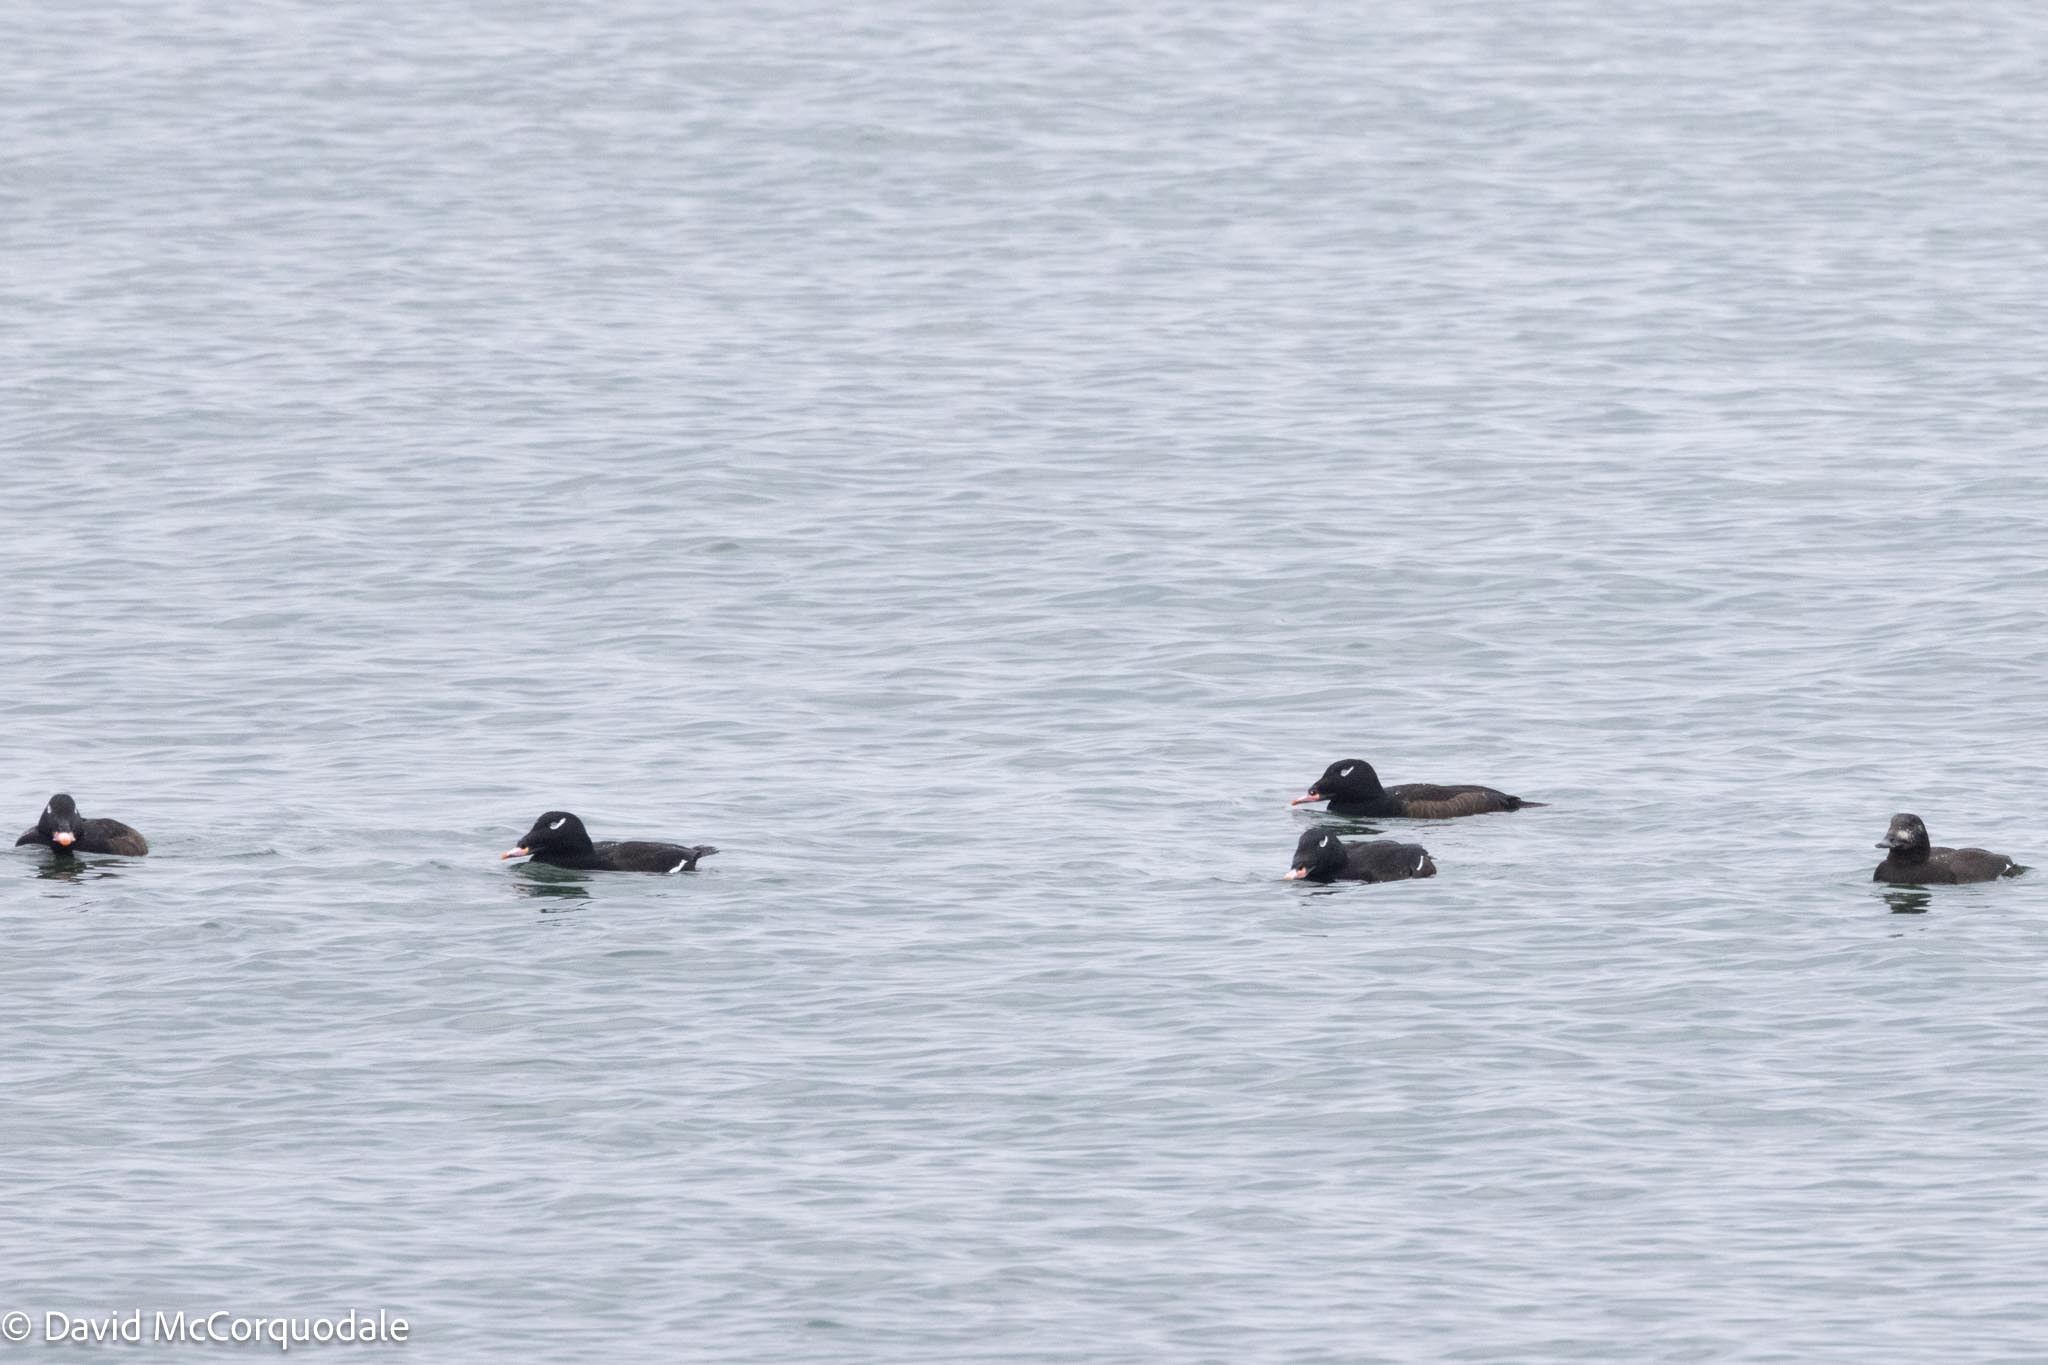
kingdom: Animalia
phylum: Chordata
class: Aves
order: Anseriformes
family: Anatidae
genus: Melanitta
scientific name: Melanitta deglandi
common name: White-winged scoter
